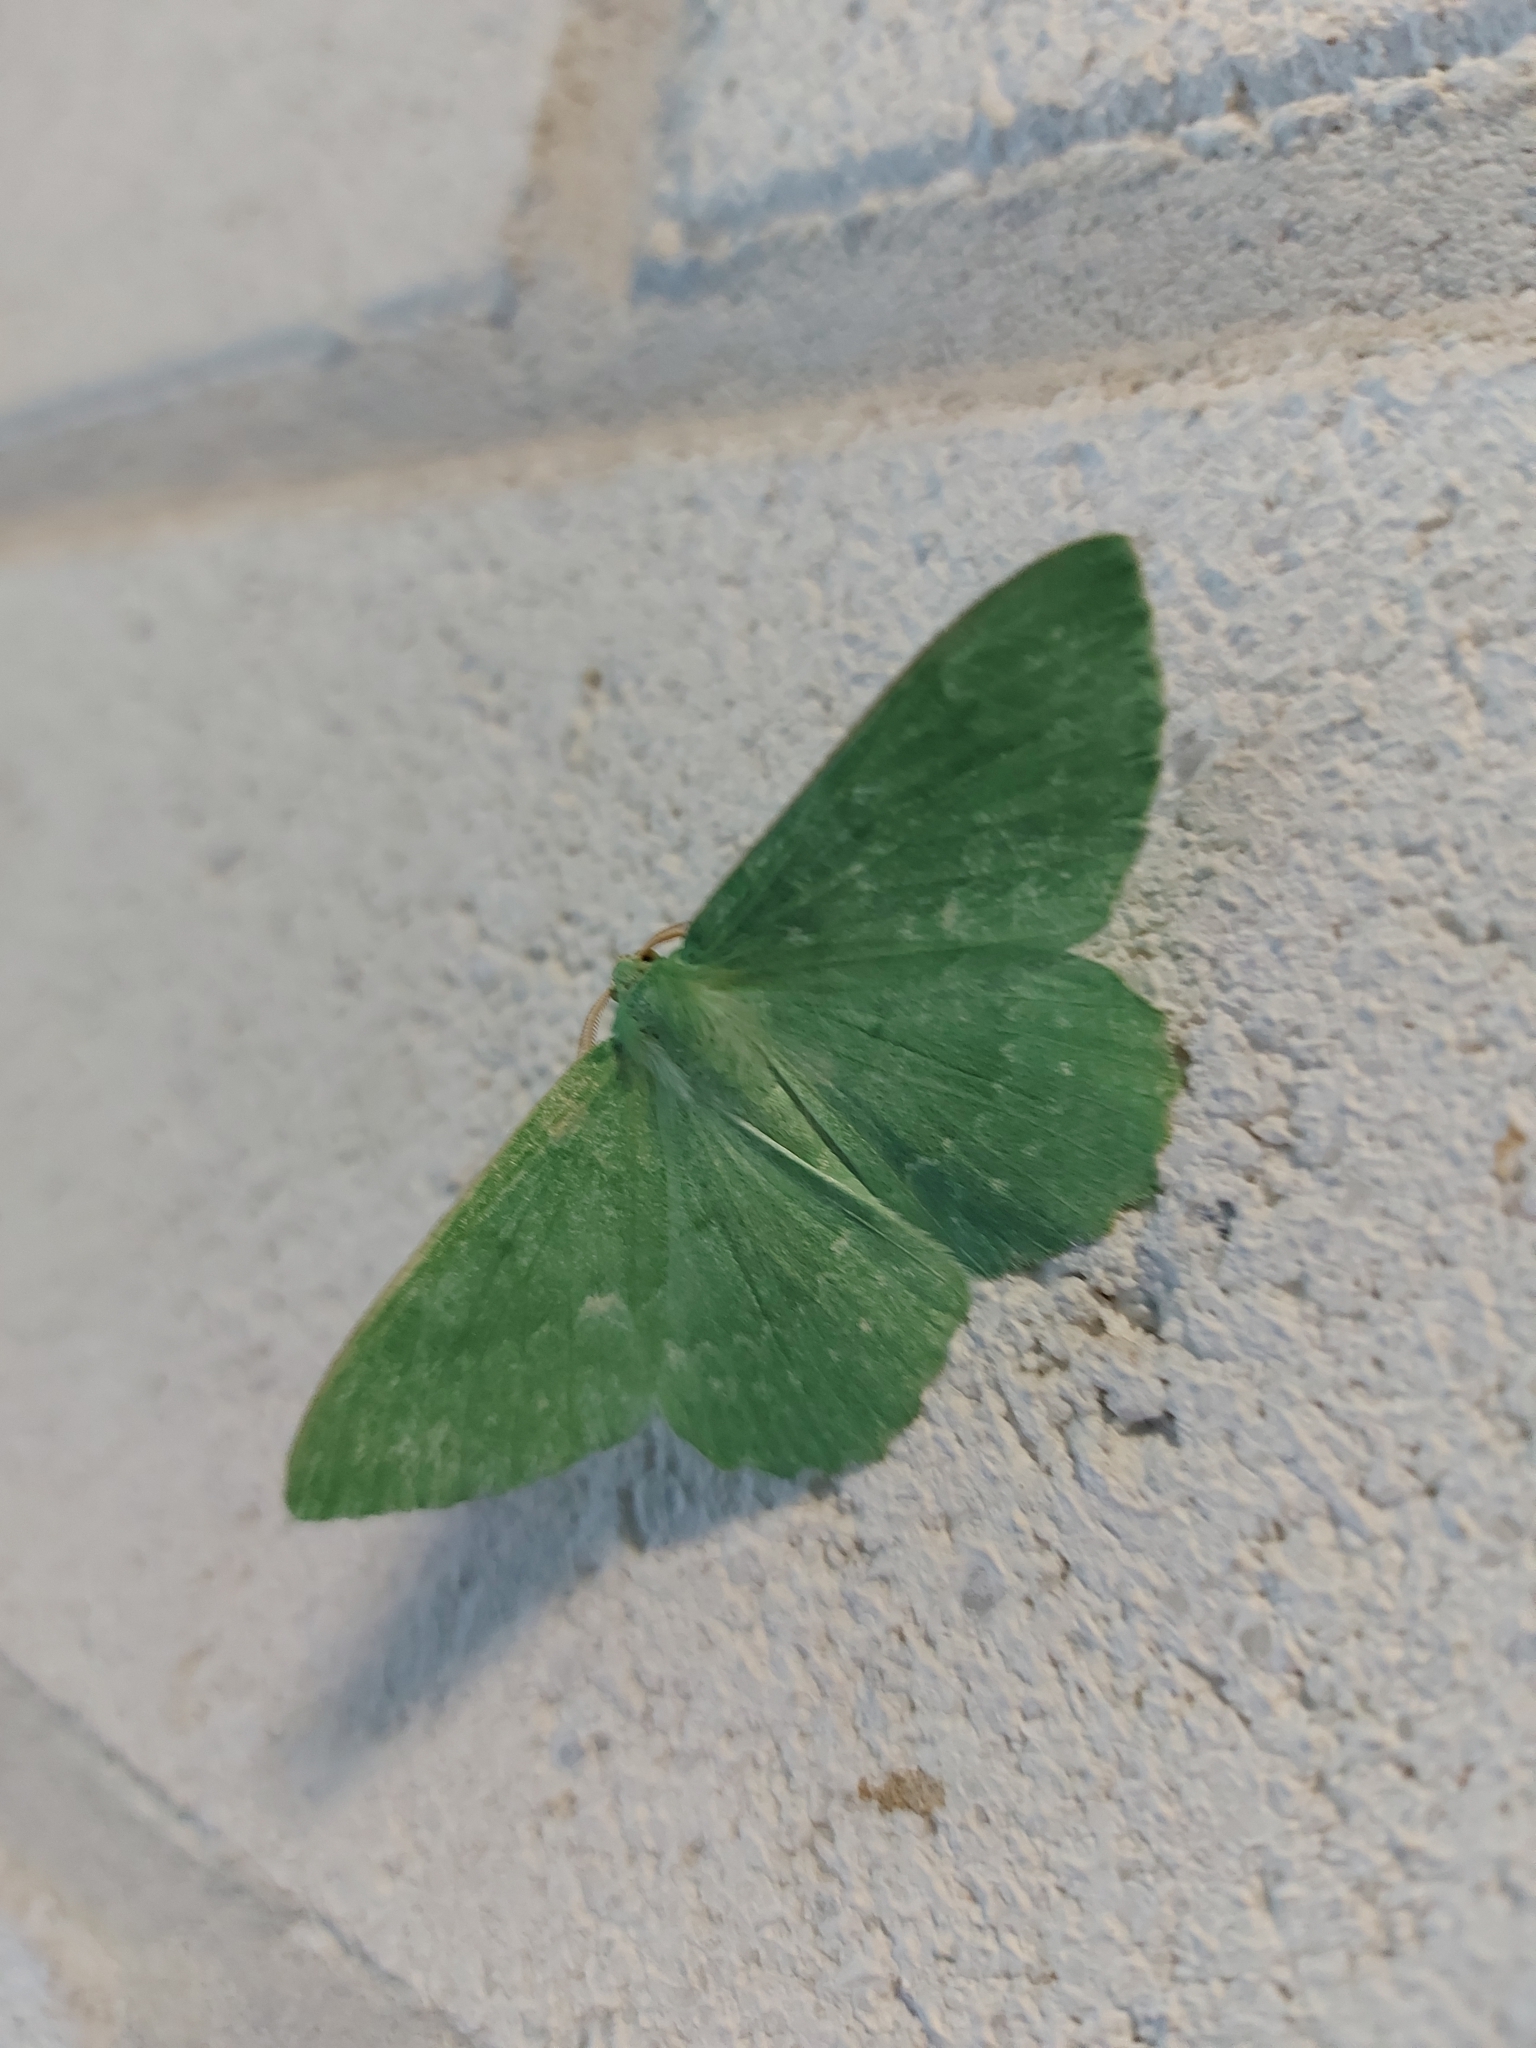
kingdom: Animalia
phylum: Arthropoda
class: Insecta
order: Lepidoptera
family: Geometridae
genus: Geometra
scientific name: Geometra papilionaria
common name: Large emerald
